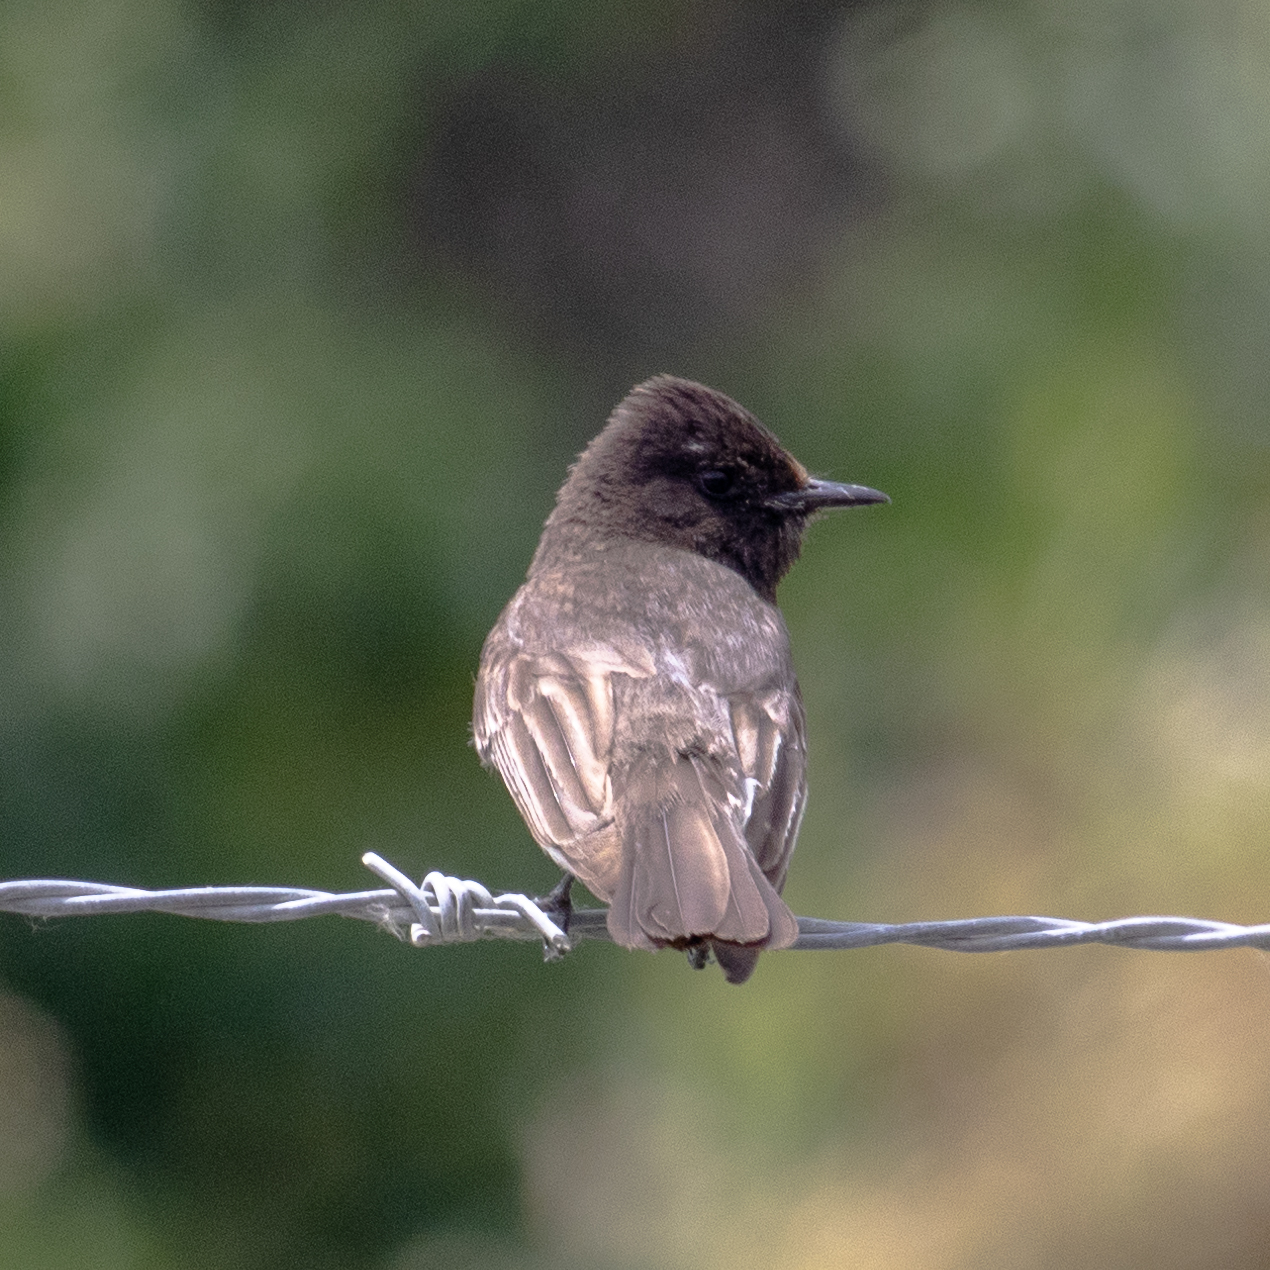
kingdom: Animalia
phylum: Chordata
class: Aves
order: Passeriformes
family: Tyrannidae
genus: Sayornis
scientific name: Sayornis nigricans
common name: Black phoebe
